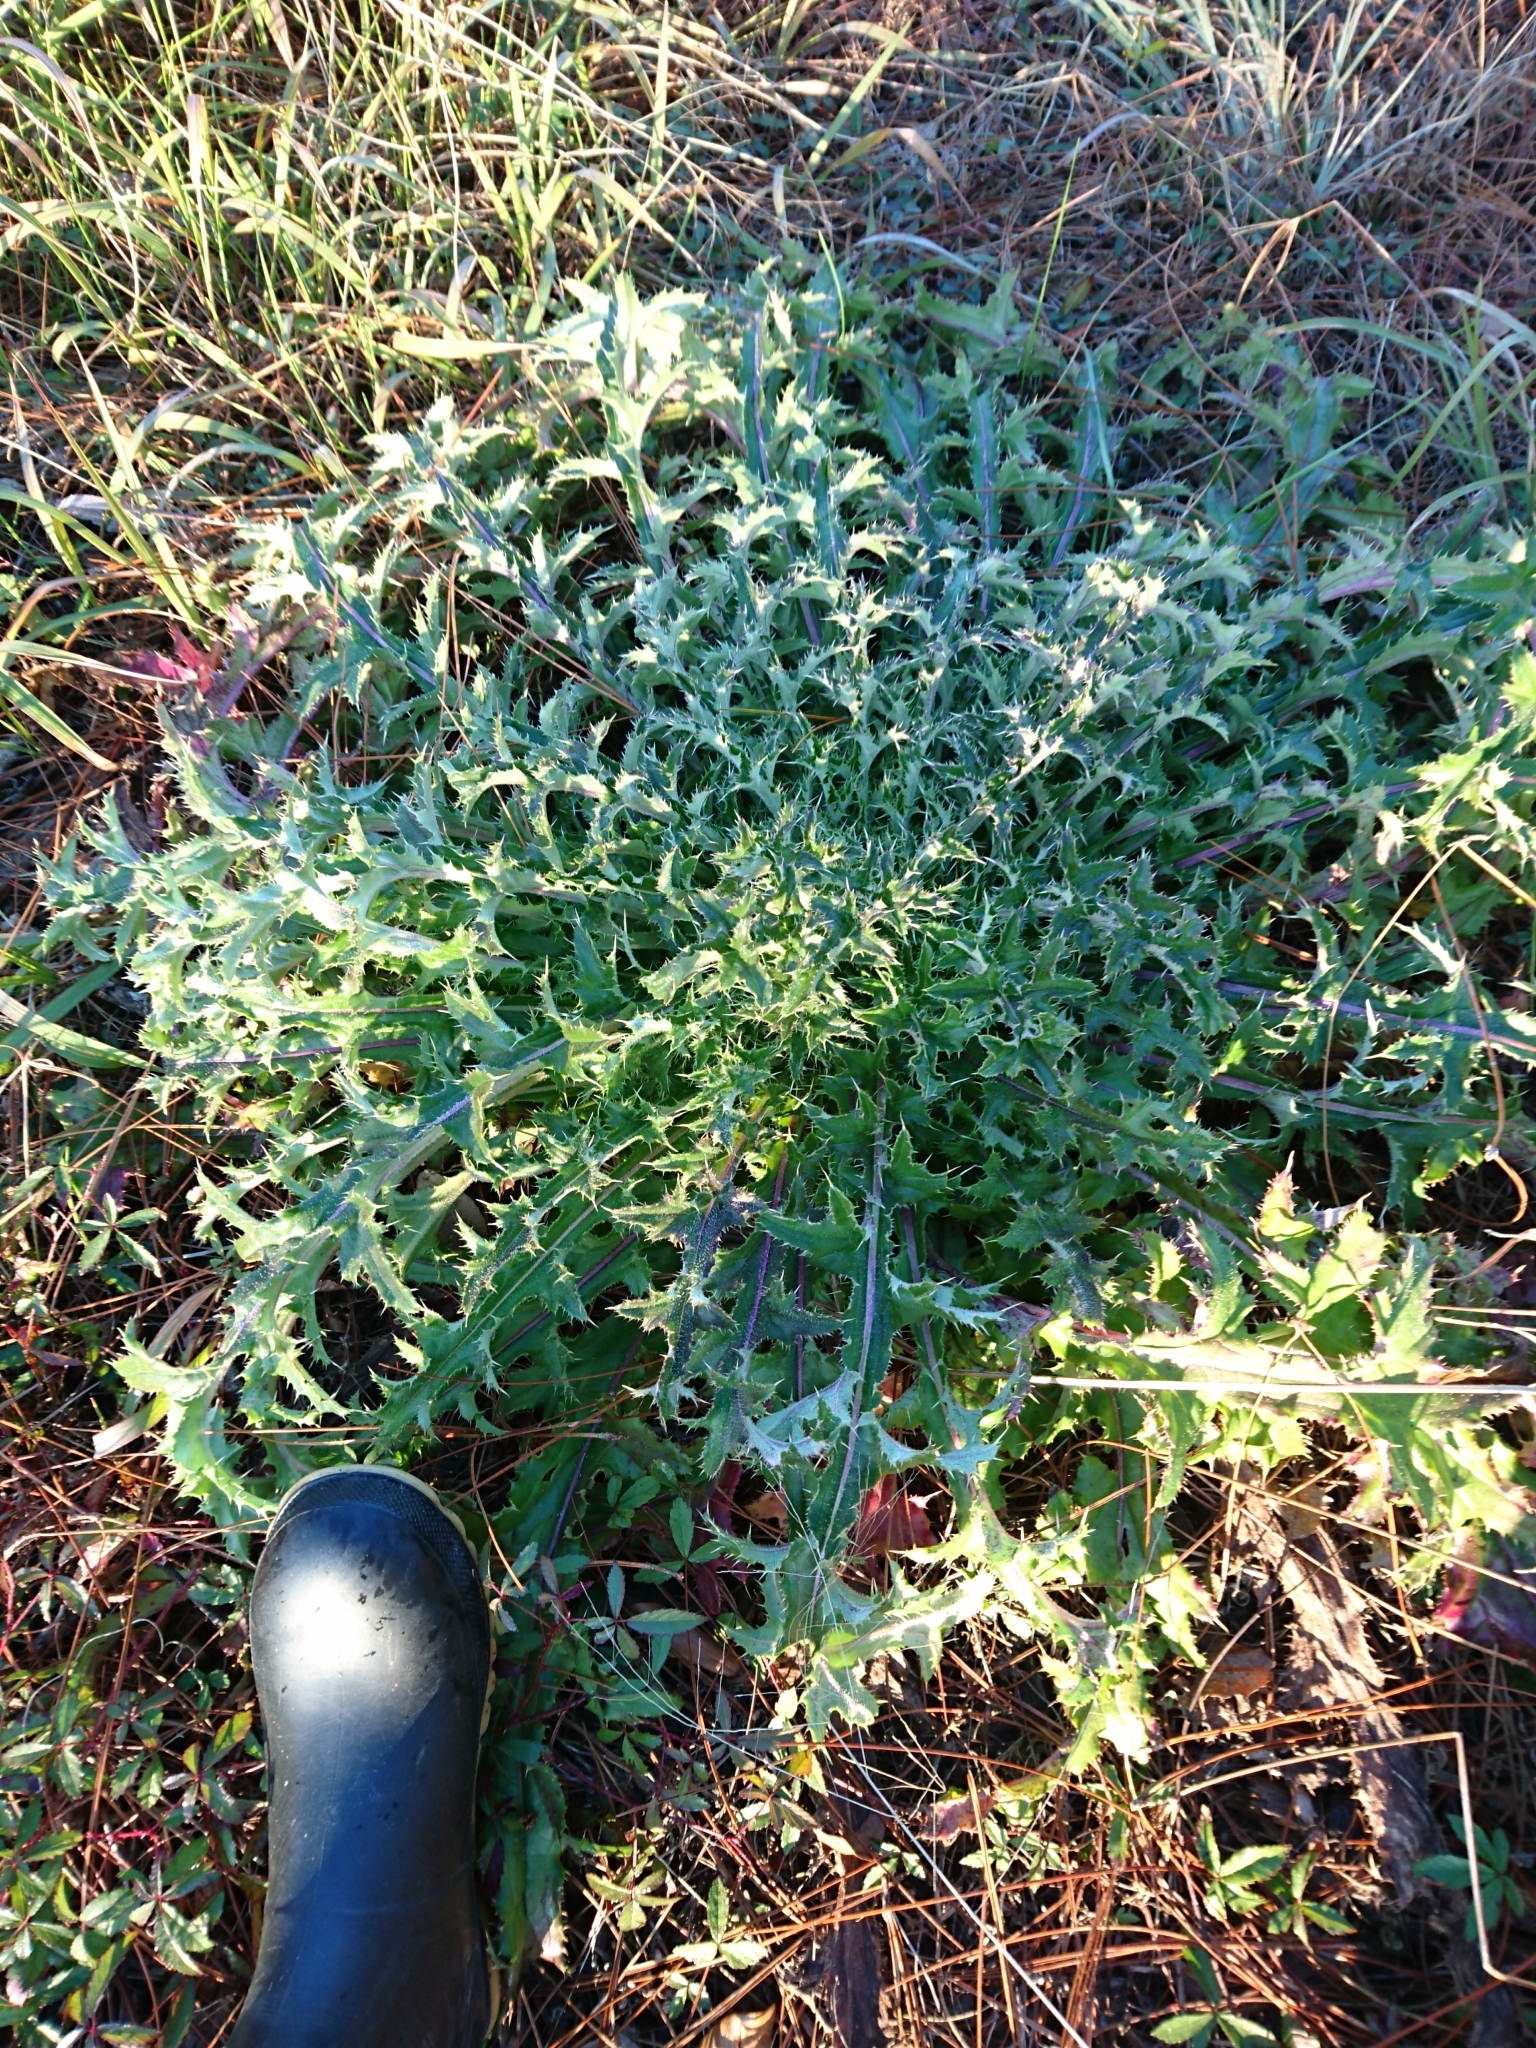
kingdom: Plantae
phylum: Tracheophyta
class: Magnoliopsida
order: Asterales
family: Asteraceae
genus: Cirsium
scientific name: Cirsium horridulum
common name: Bristly thistle
